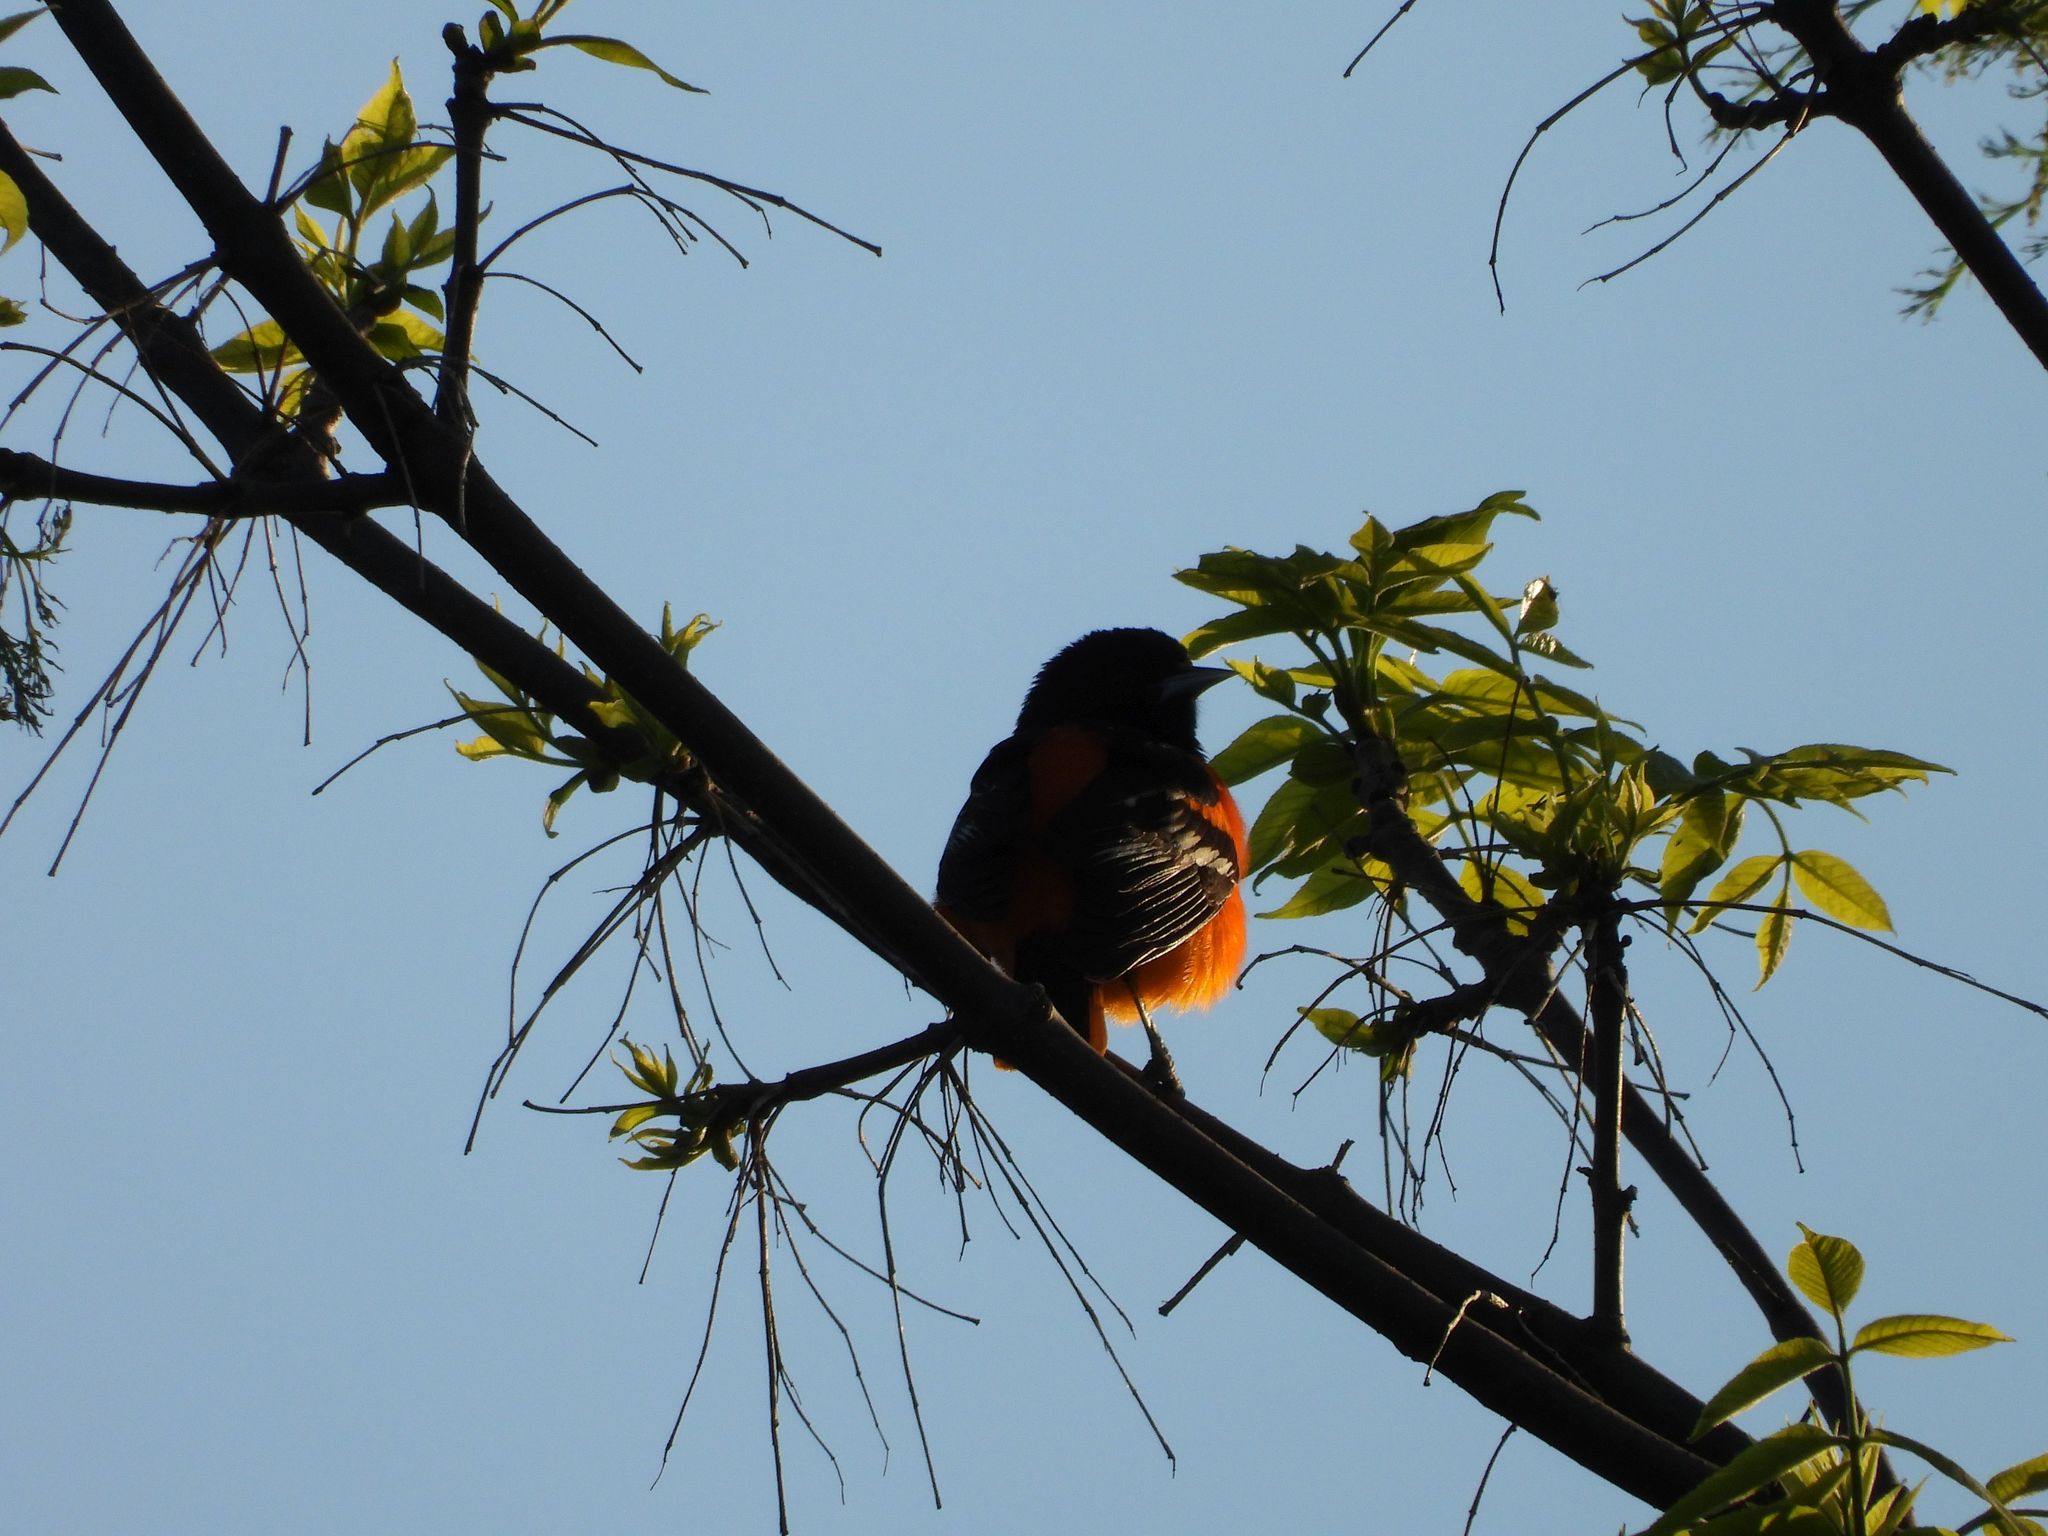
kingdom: Animalia
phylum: Chordata
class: Aves
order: Passeriformes
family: Icteridae
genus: Icterus
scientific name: Icterus galbula
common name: Baltimore oriole
